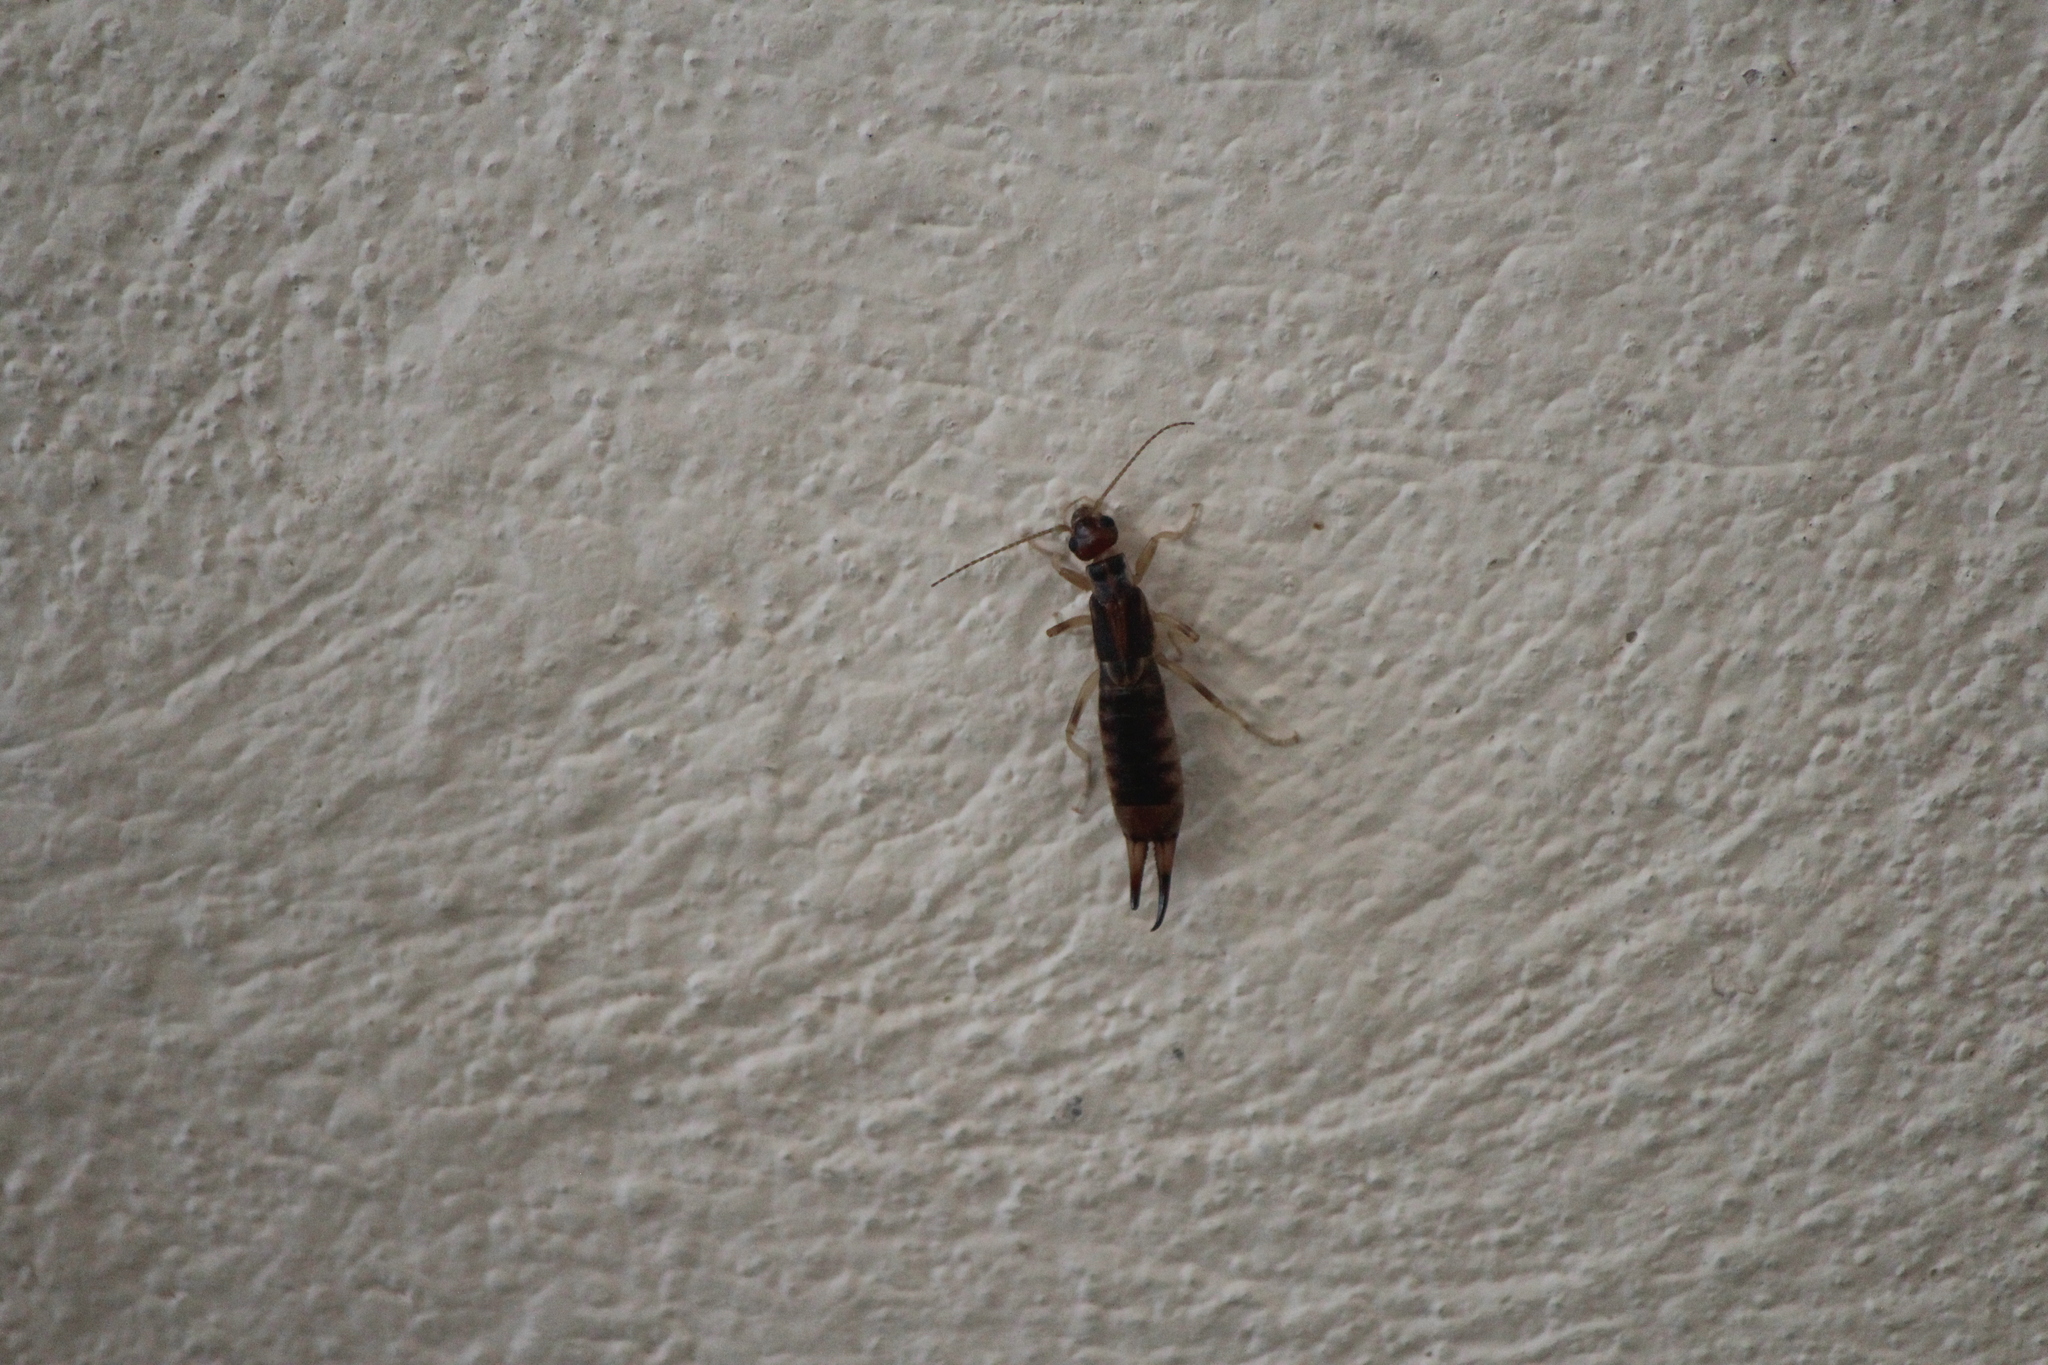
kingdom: Animalia
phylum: Arthropoda
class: Insecta
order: Dermaptera
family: Anisolabididae
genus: Euborellia
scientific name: Euborellia annulipes
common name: Ringlegged earwig
